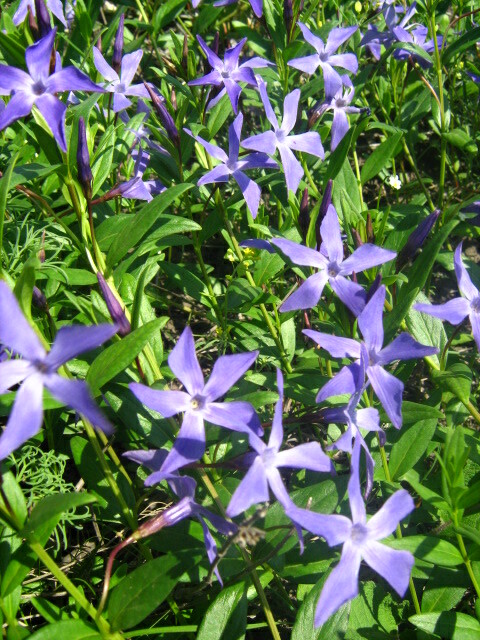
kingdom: Plantae
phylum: Tracheophyta
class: Magnoliopsida
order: Gentianales
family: Apocynaceae
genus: Vinca
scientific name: Vinca herbacea
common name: Herbaceous periwinkle
